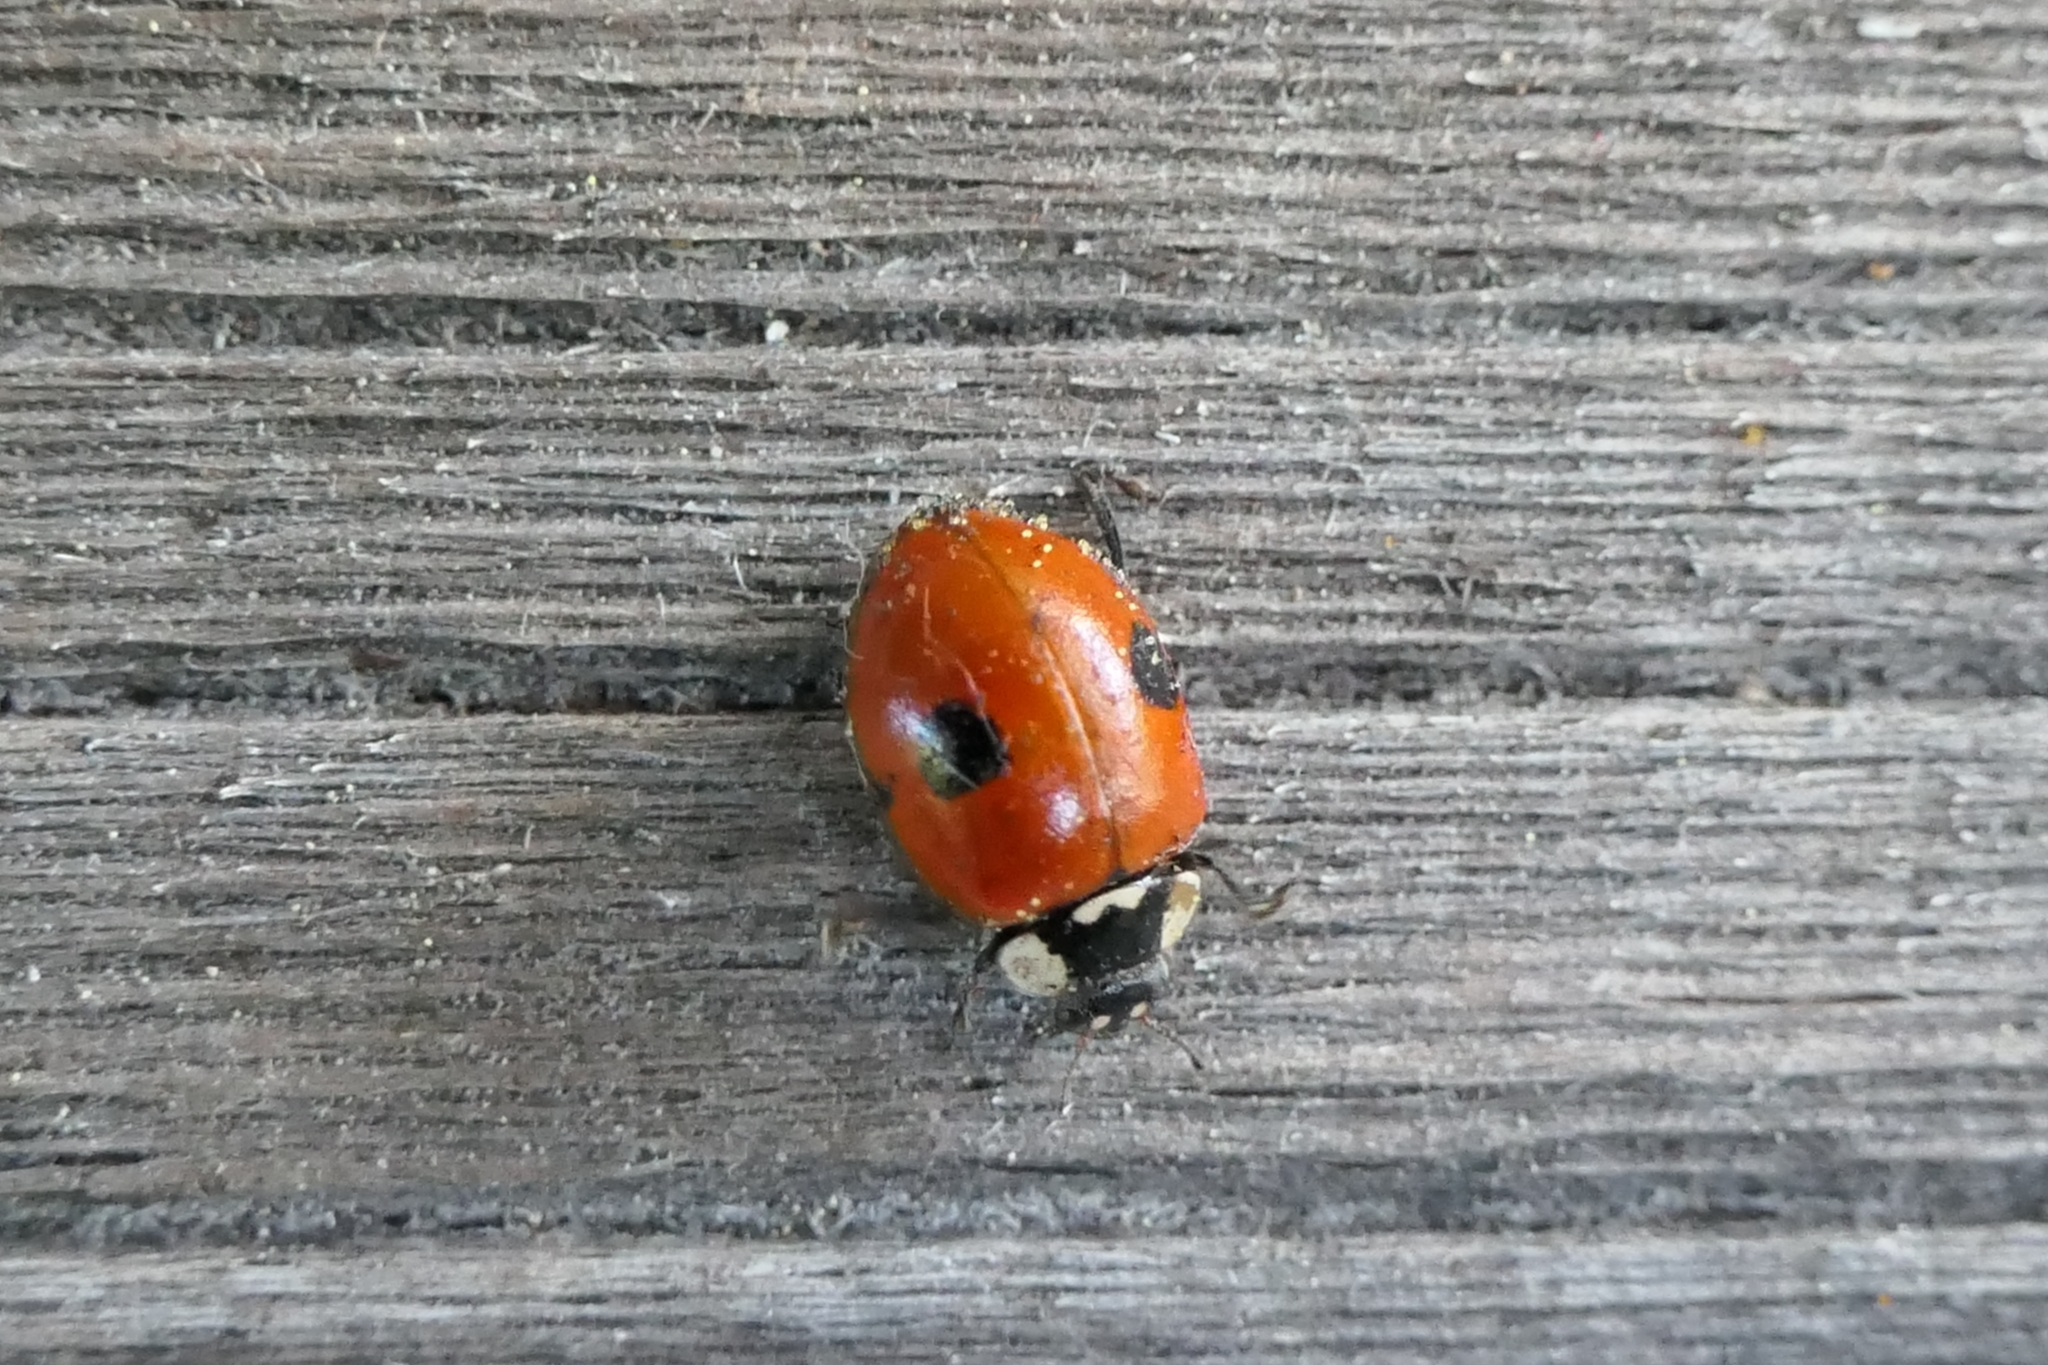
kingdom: Animalia
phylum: Arthropoda
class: Insecta
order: Coleoptera
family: Coccinellidae
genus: Adalia
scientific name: Adalia bipunctata
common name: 2-spot ladybird
